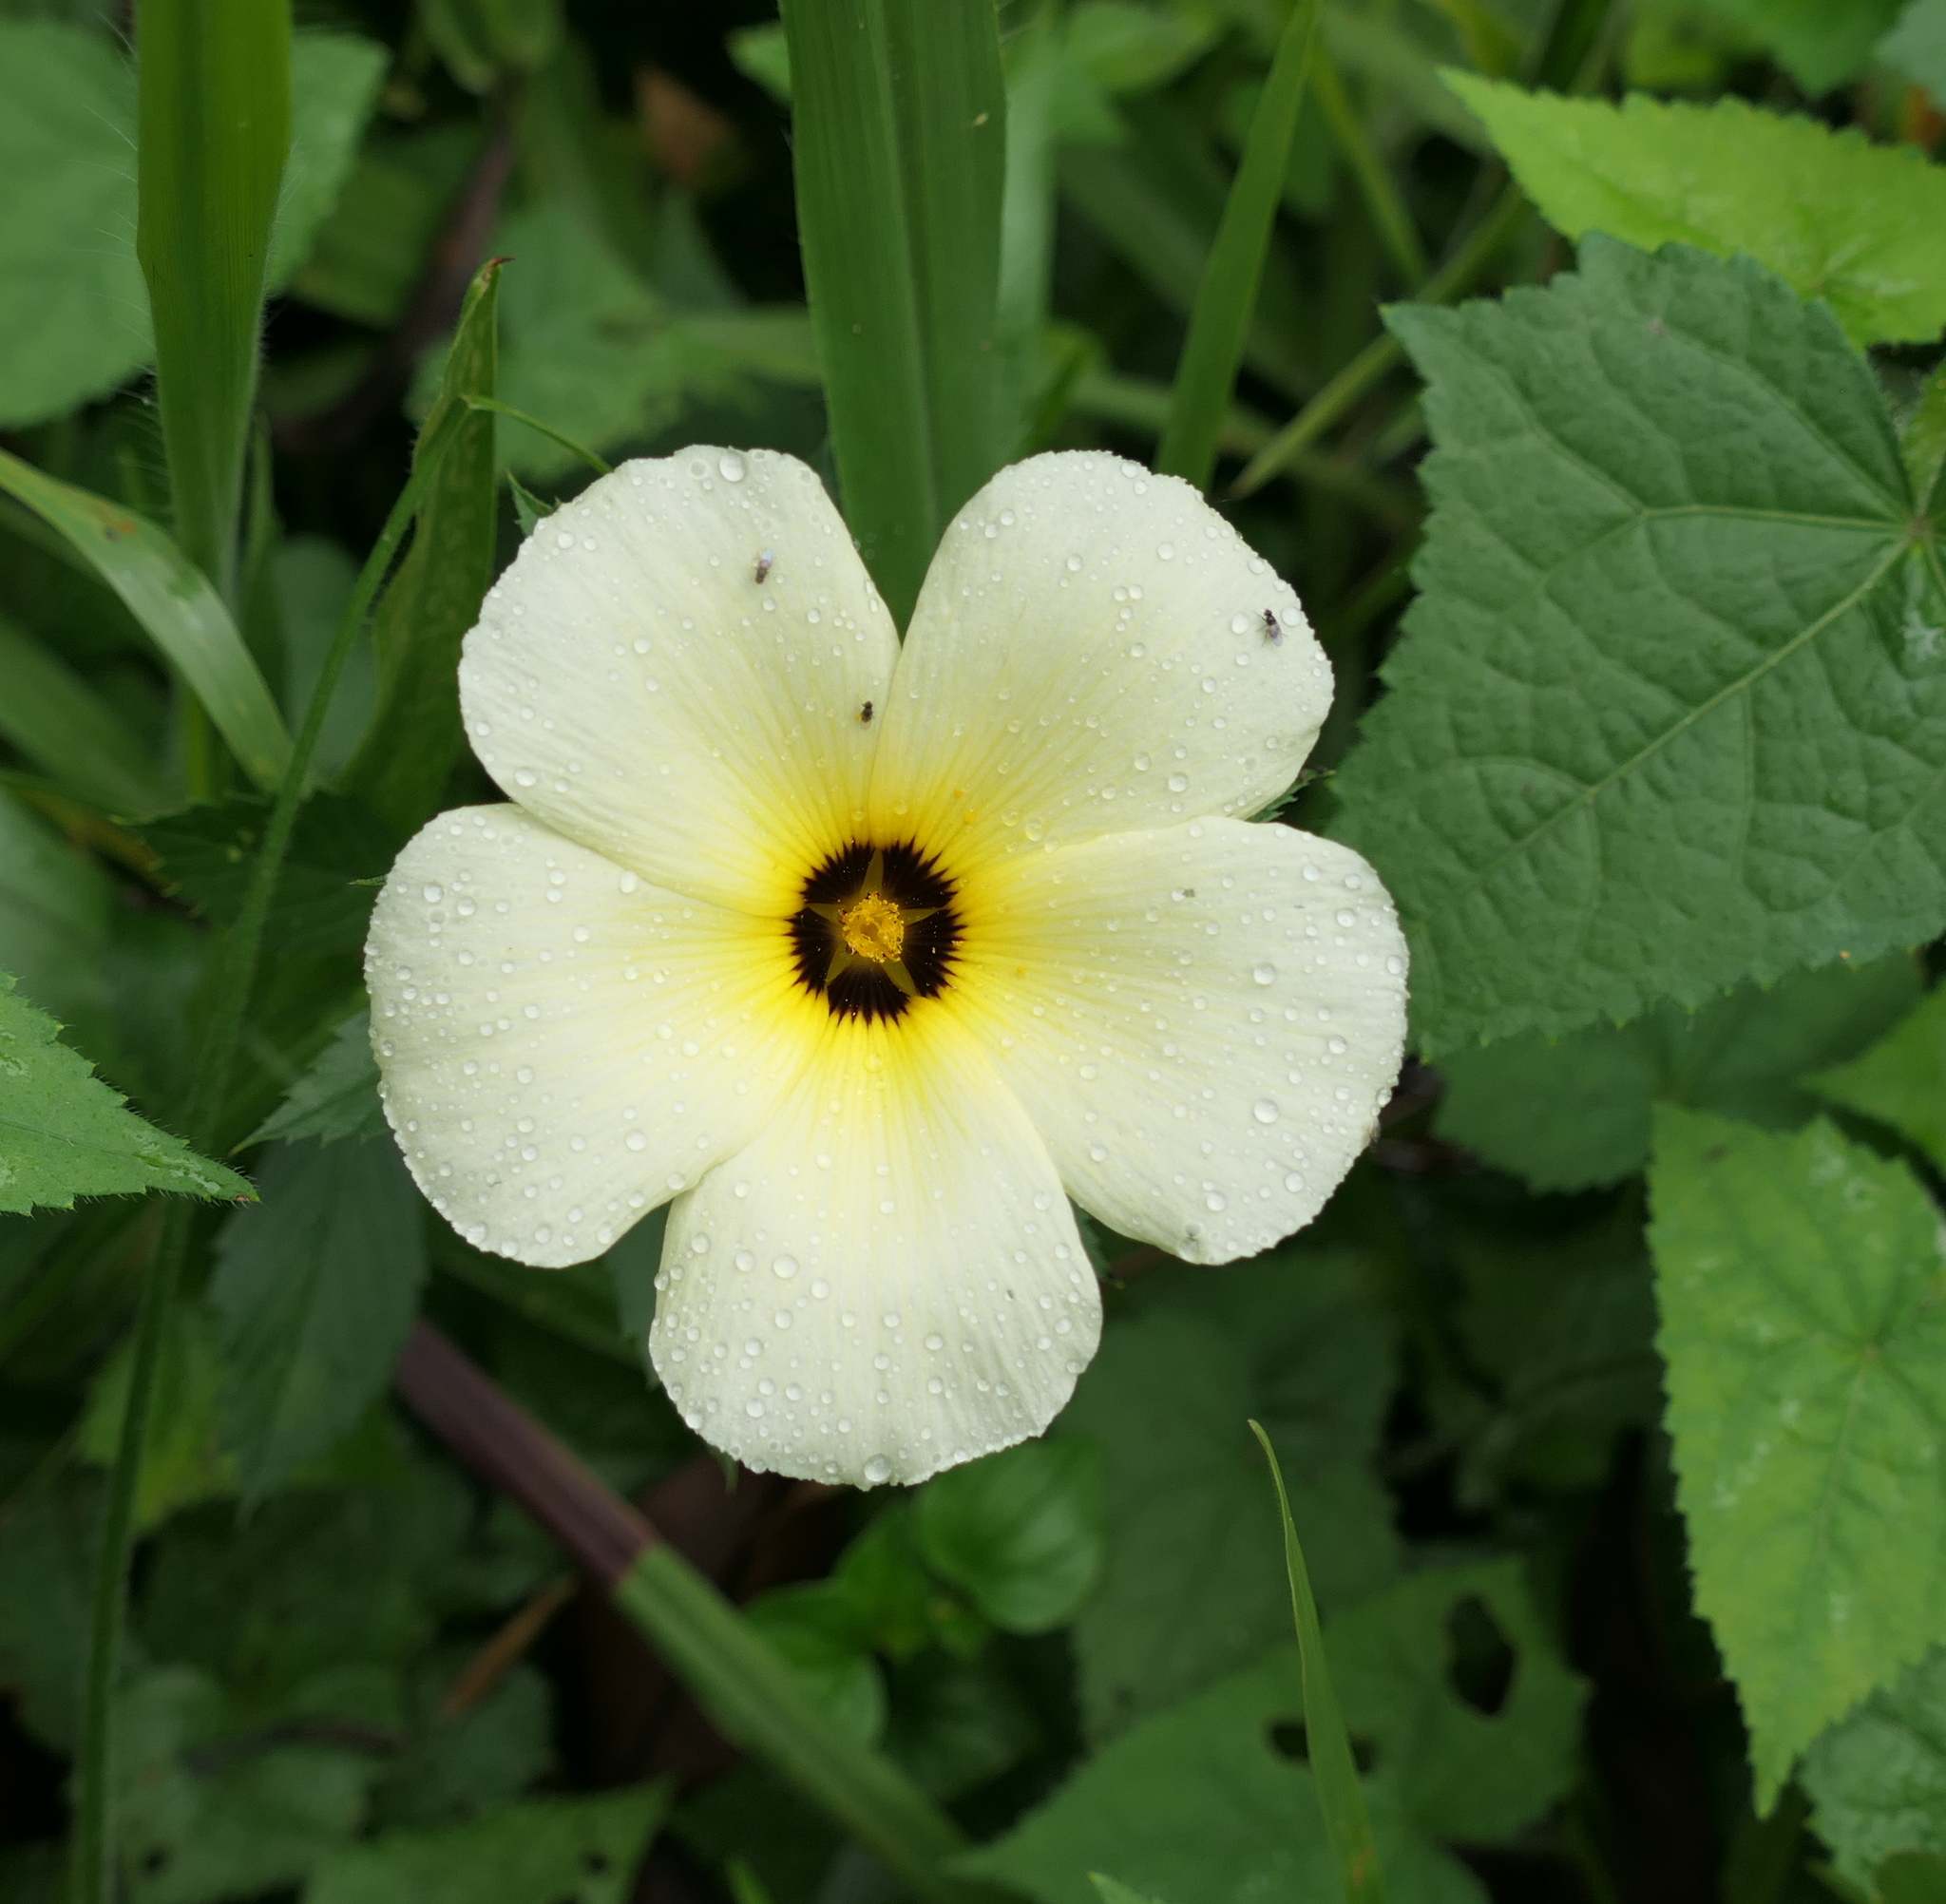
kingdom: Plantae
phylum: Tracheophyta
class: Magnoliopsida
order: Malpighiales
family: Turneraceae
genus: Turnera
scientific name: Turnera subulata
